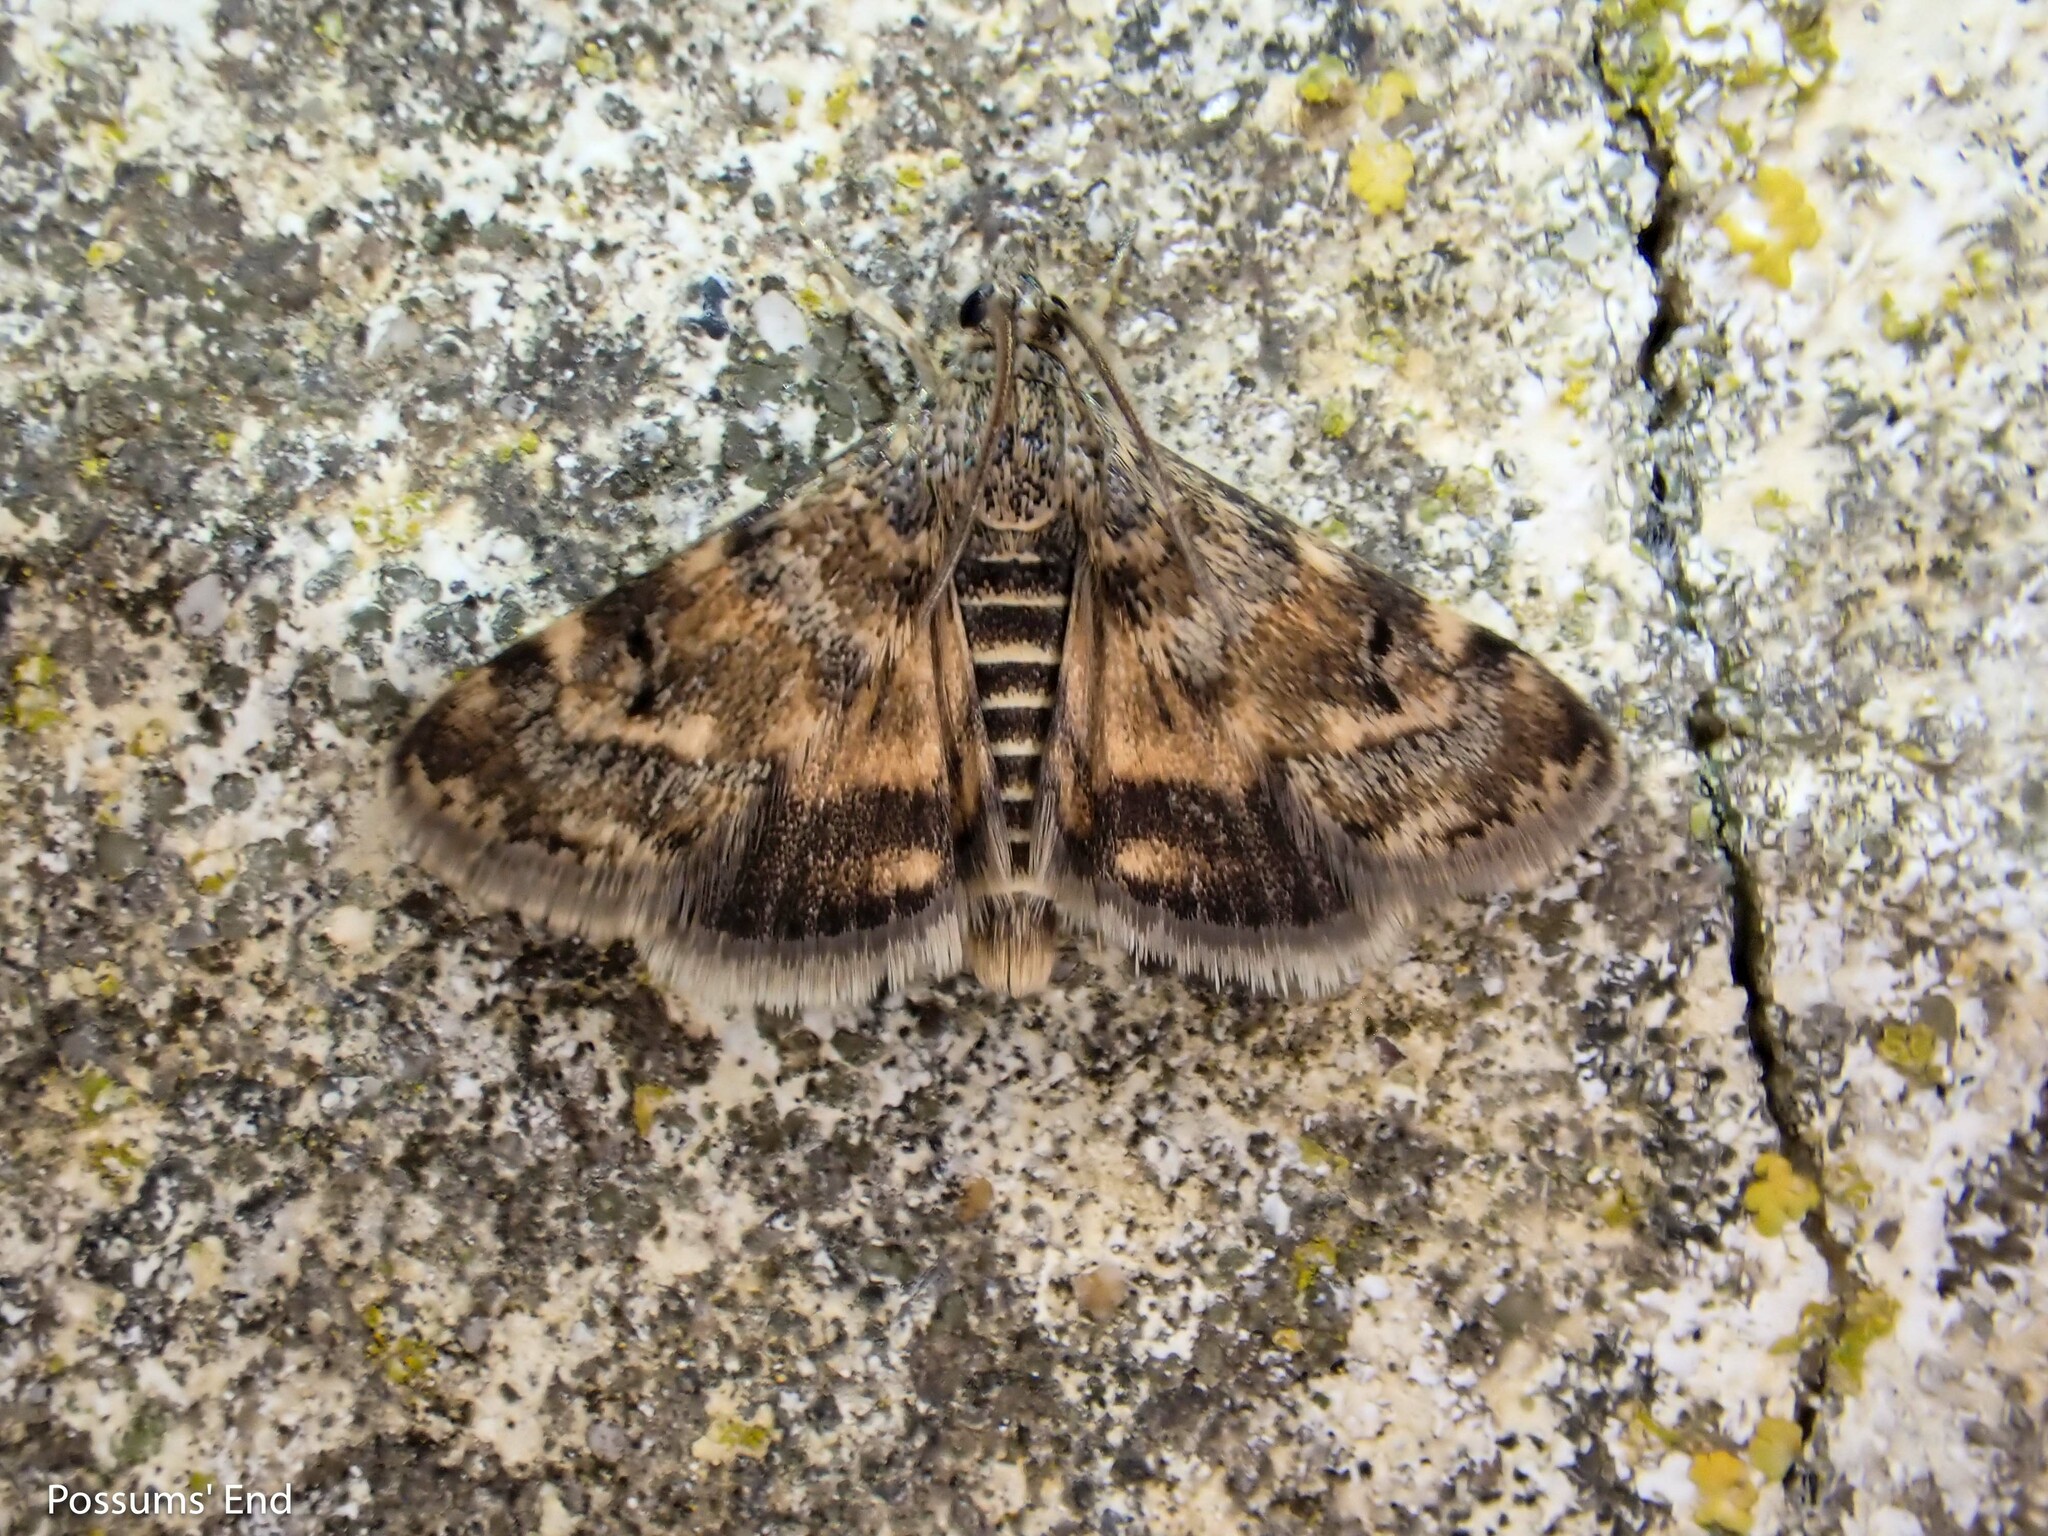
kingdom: Animalia
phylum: Arthropoda
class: Insecta
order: Lepidoptera
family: Crambidae
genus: Noctuelia
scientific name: Noctuelia Aporodes floralis
